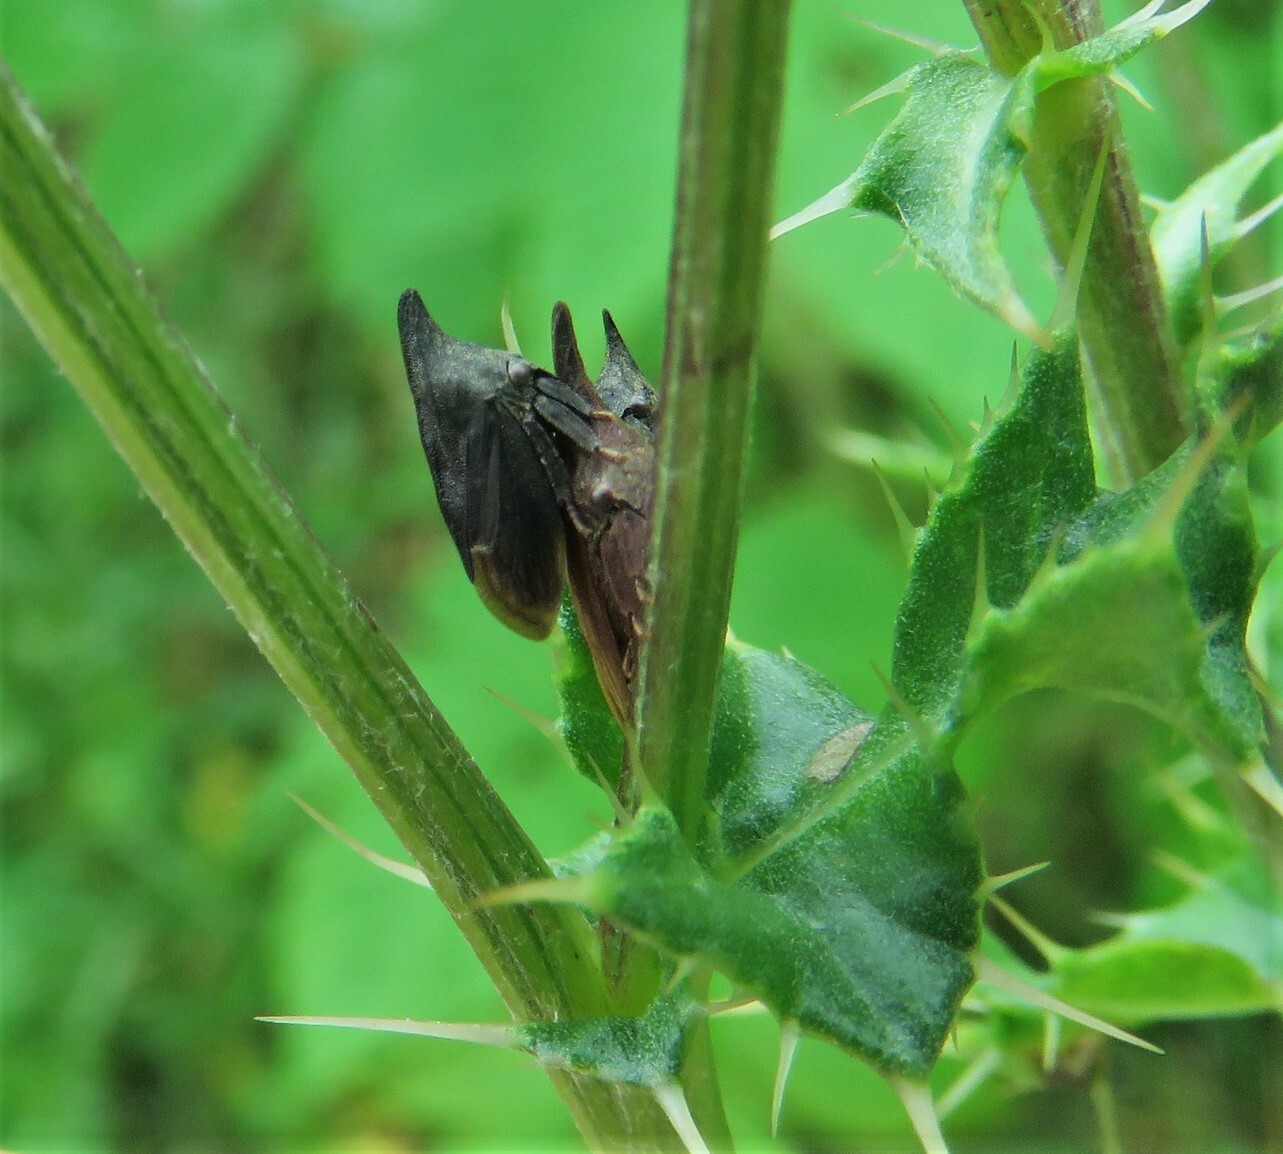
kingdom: Animalia
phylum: Arthropoda
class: Insecta
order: Hemiptera
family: Membracidae
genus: Enchenopa
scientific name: Enchenopa latipes
